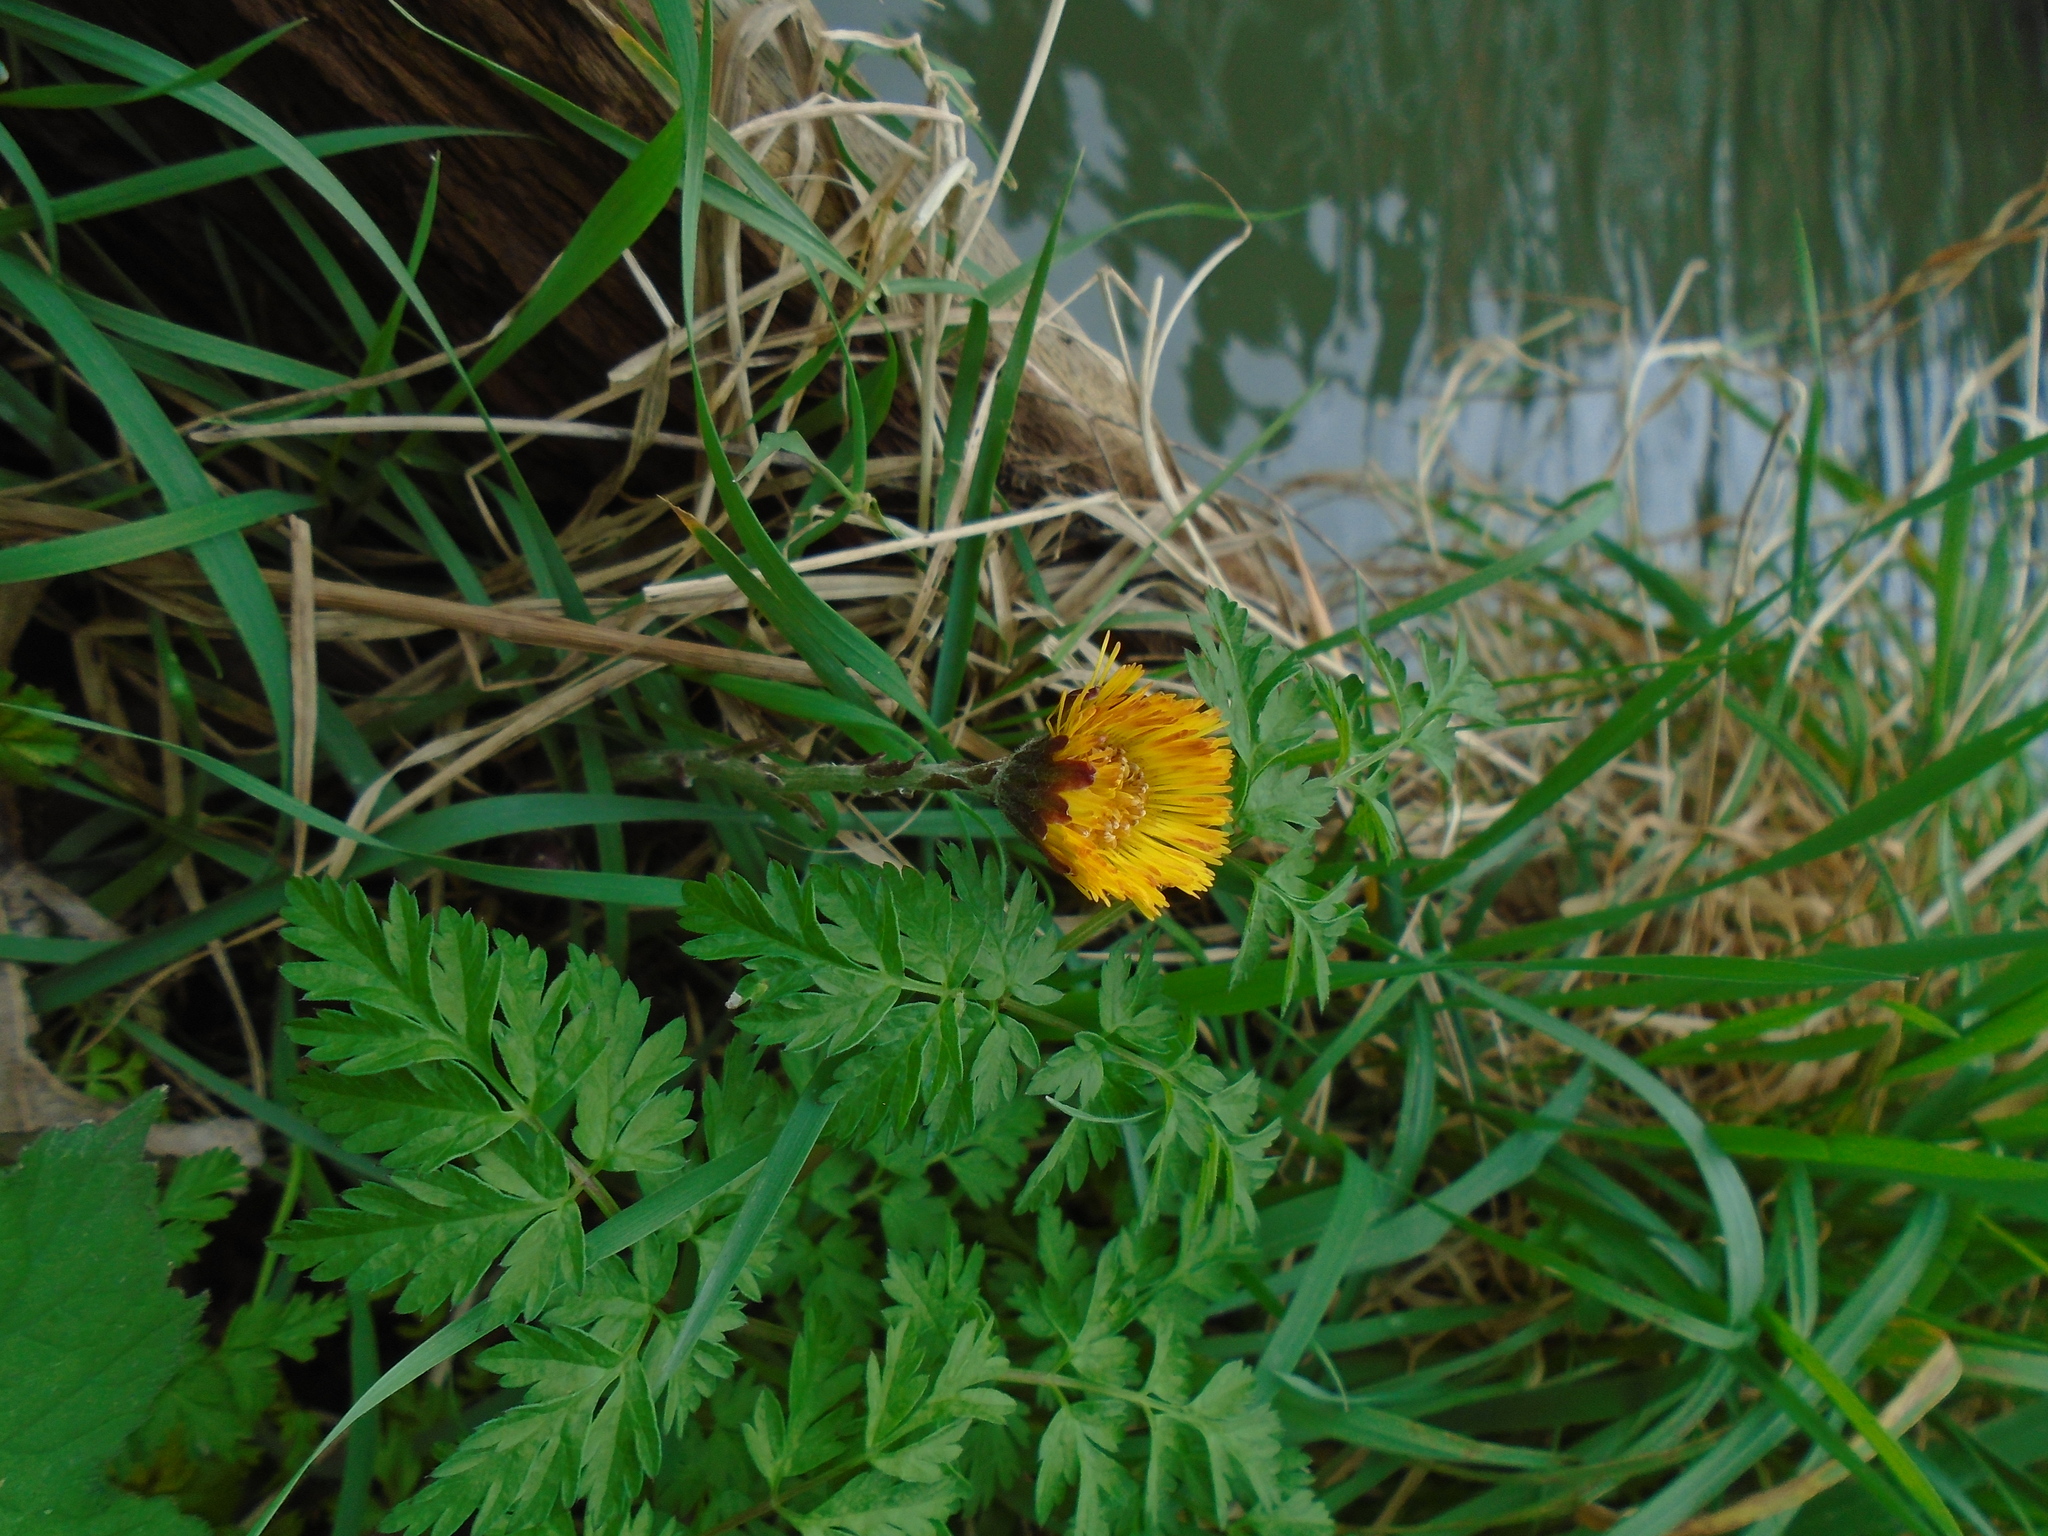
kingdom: Plantae
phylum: Tracheophyta
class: Magnoliopsida
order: Asterales
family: Asteraceae
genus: Tussilago
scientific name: Tussilago farfara
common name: Coltsfoot
